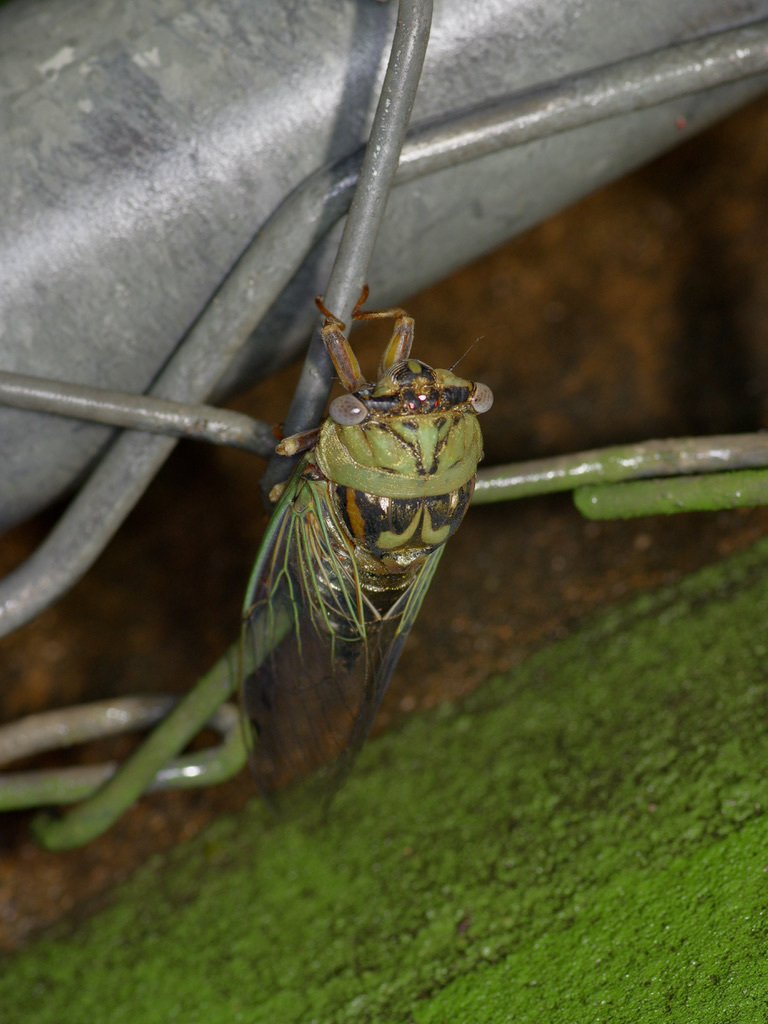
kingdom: Animalia
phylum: Arthropoda
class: Insecta
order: Hemiptera
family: Cicadidae
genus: Megatibicen
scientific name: Megatibicen resh
